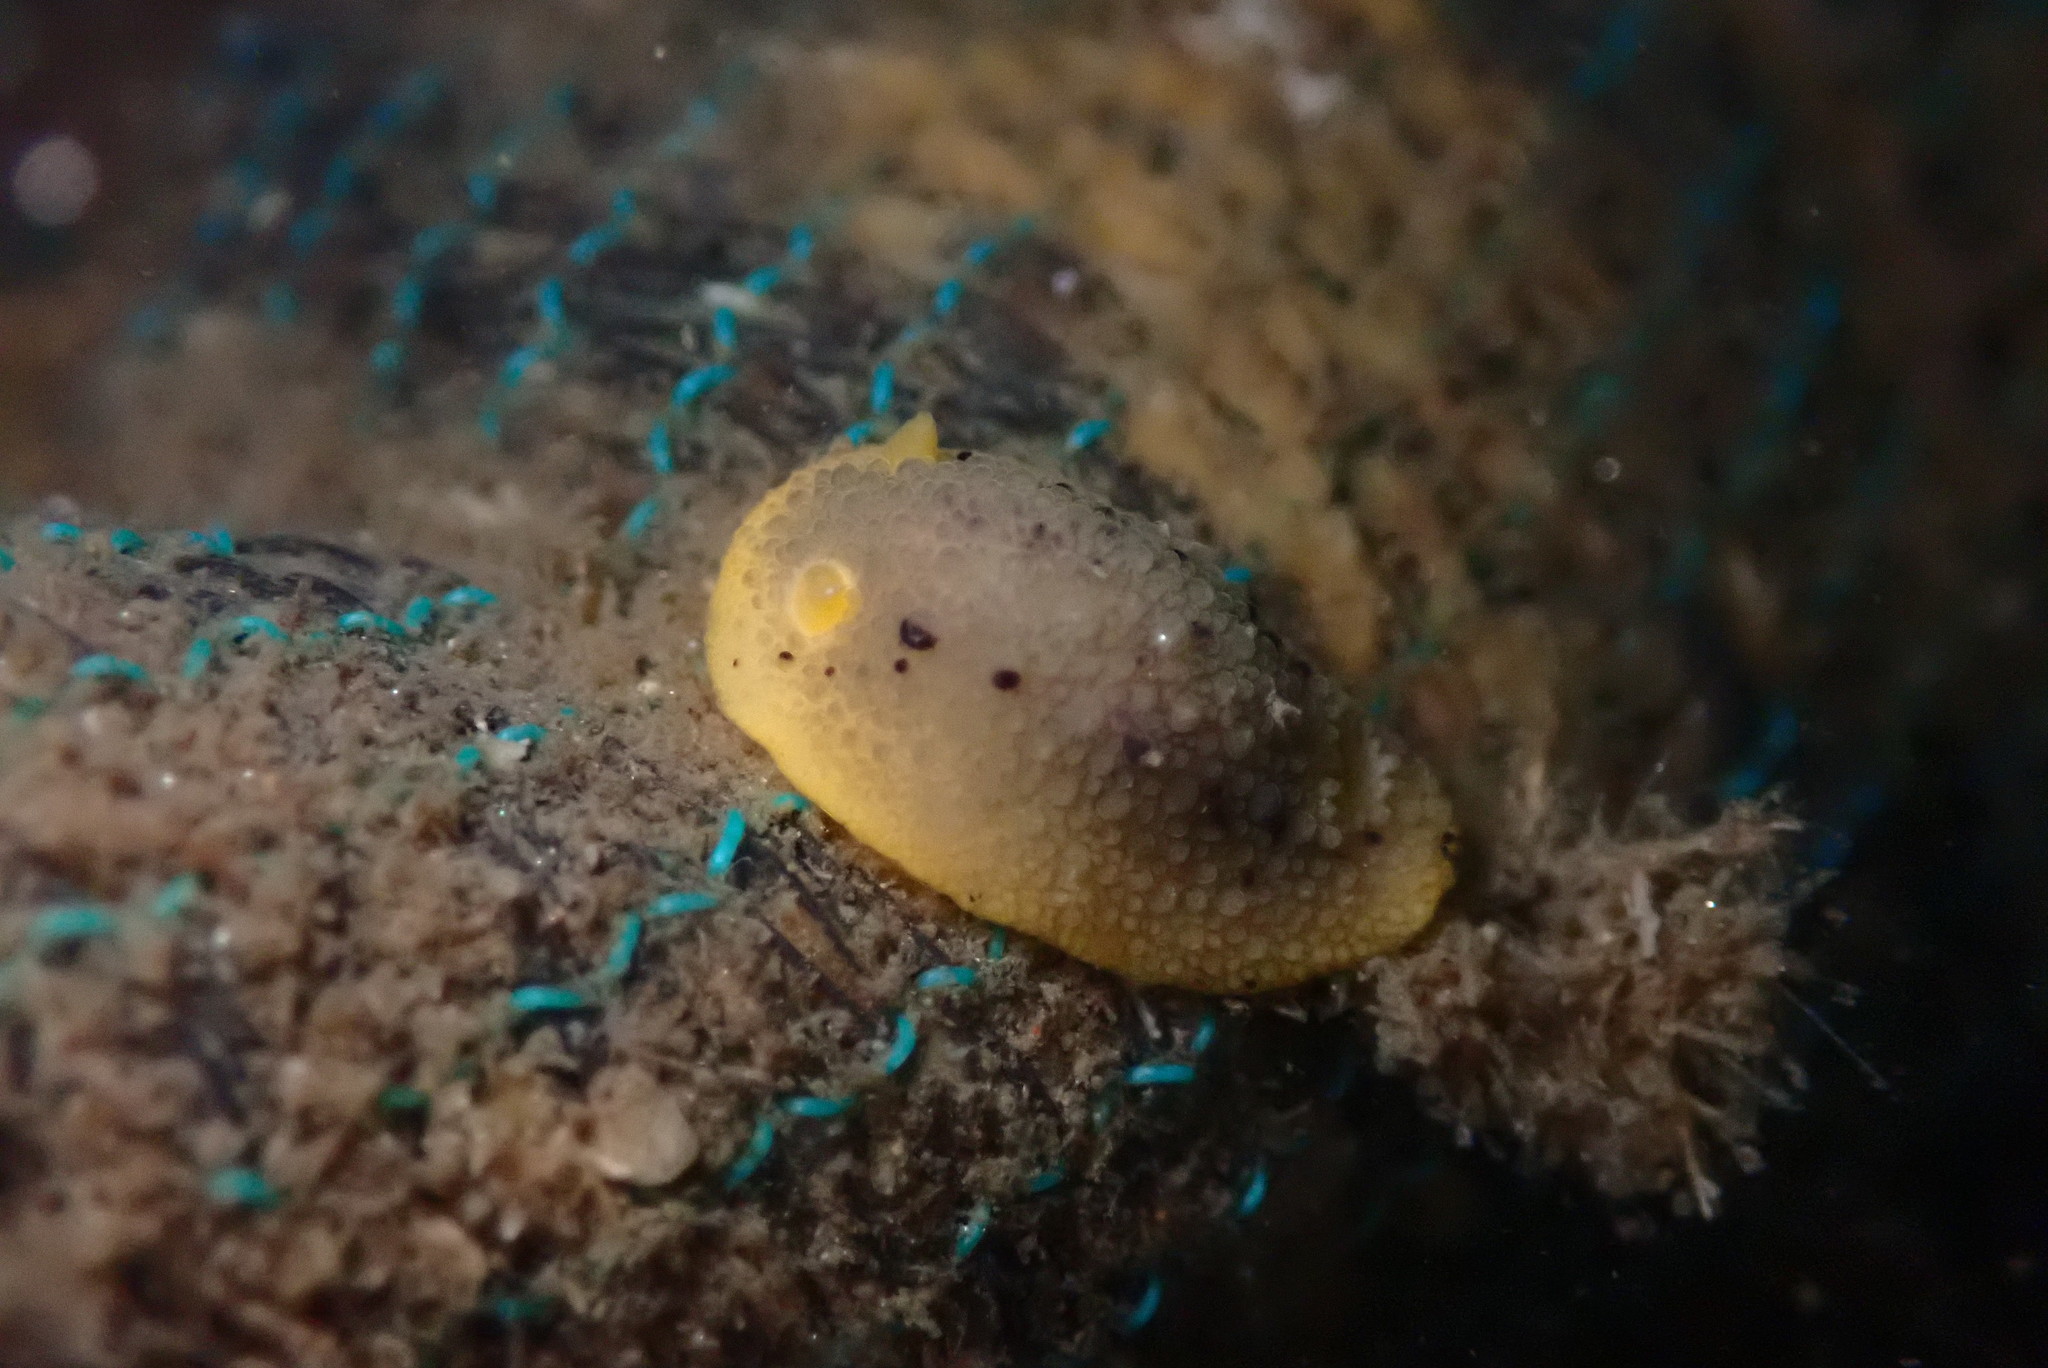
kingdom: Animalia
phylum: Mollusca
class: Gastropoda
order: Nudibranchia
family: Dorididae
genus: Doris
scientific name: Doris montereyensis
